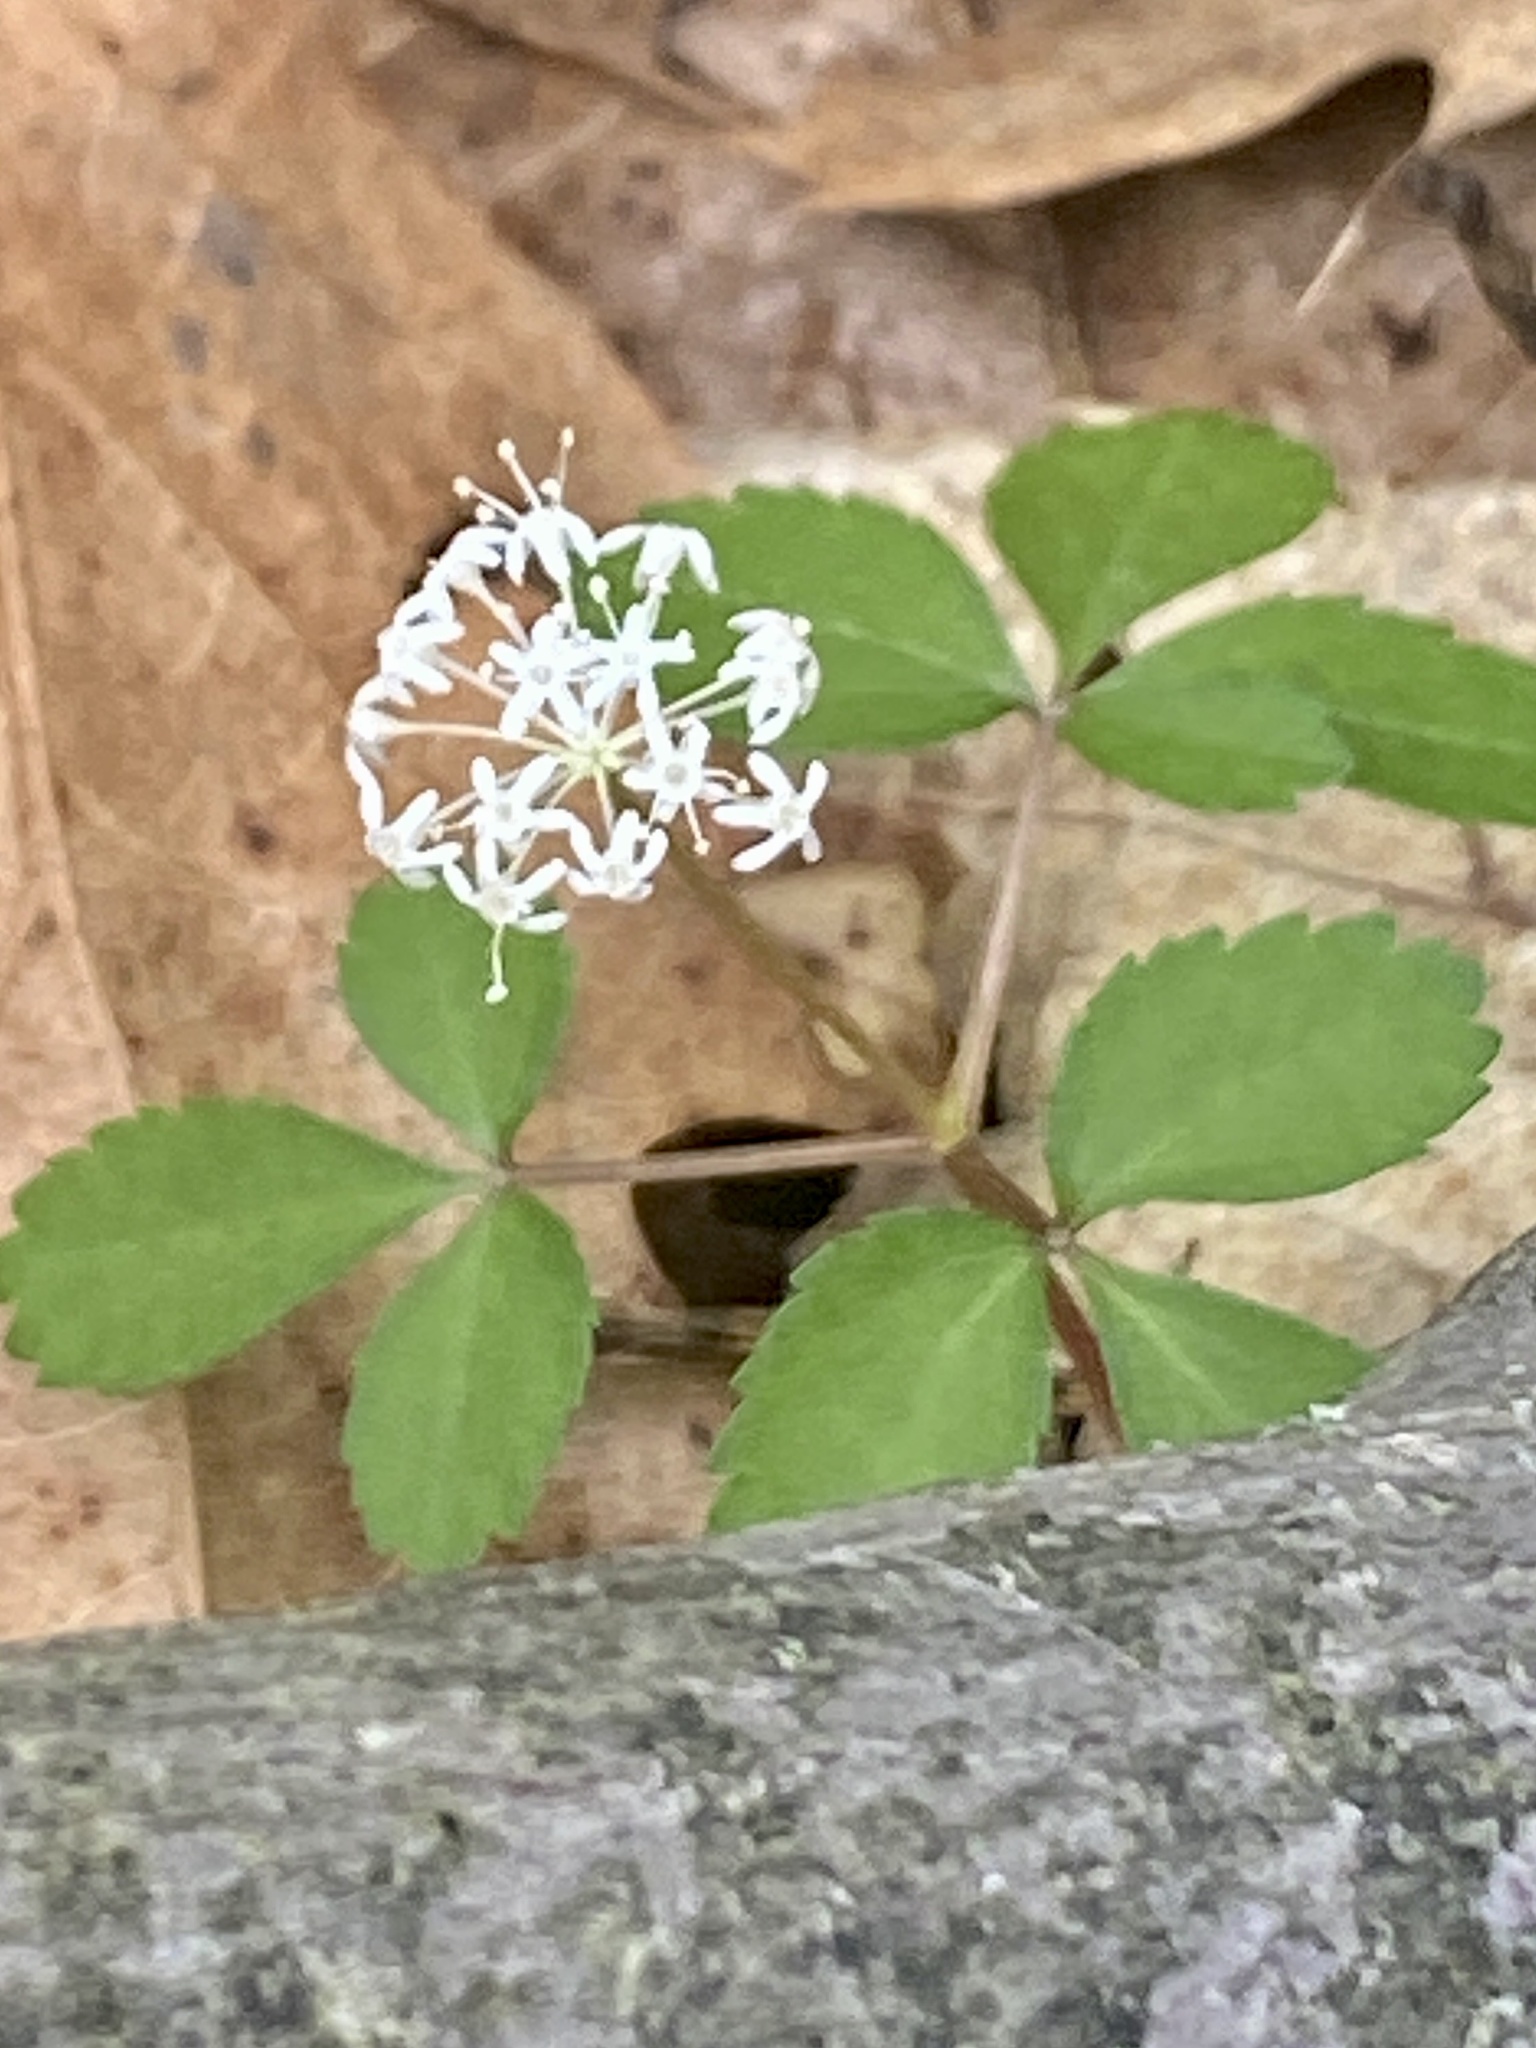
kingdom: Plantae
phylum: Tracheophyta
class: Magnoliopsida
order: Apiales
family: Araliaceae
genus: Panax
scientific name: Panax trifolius
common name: Dwarf ginseng
